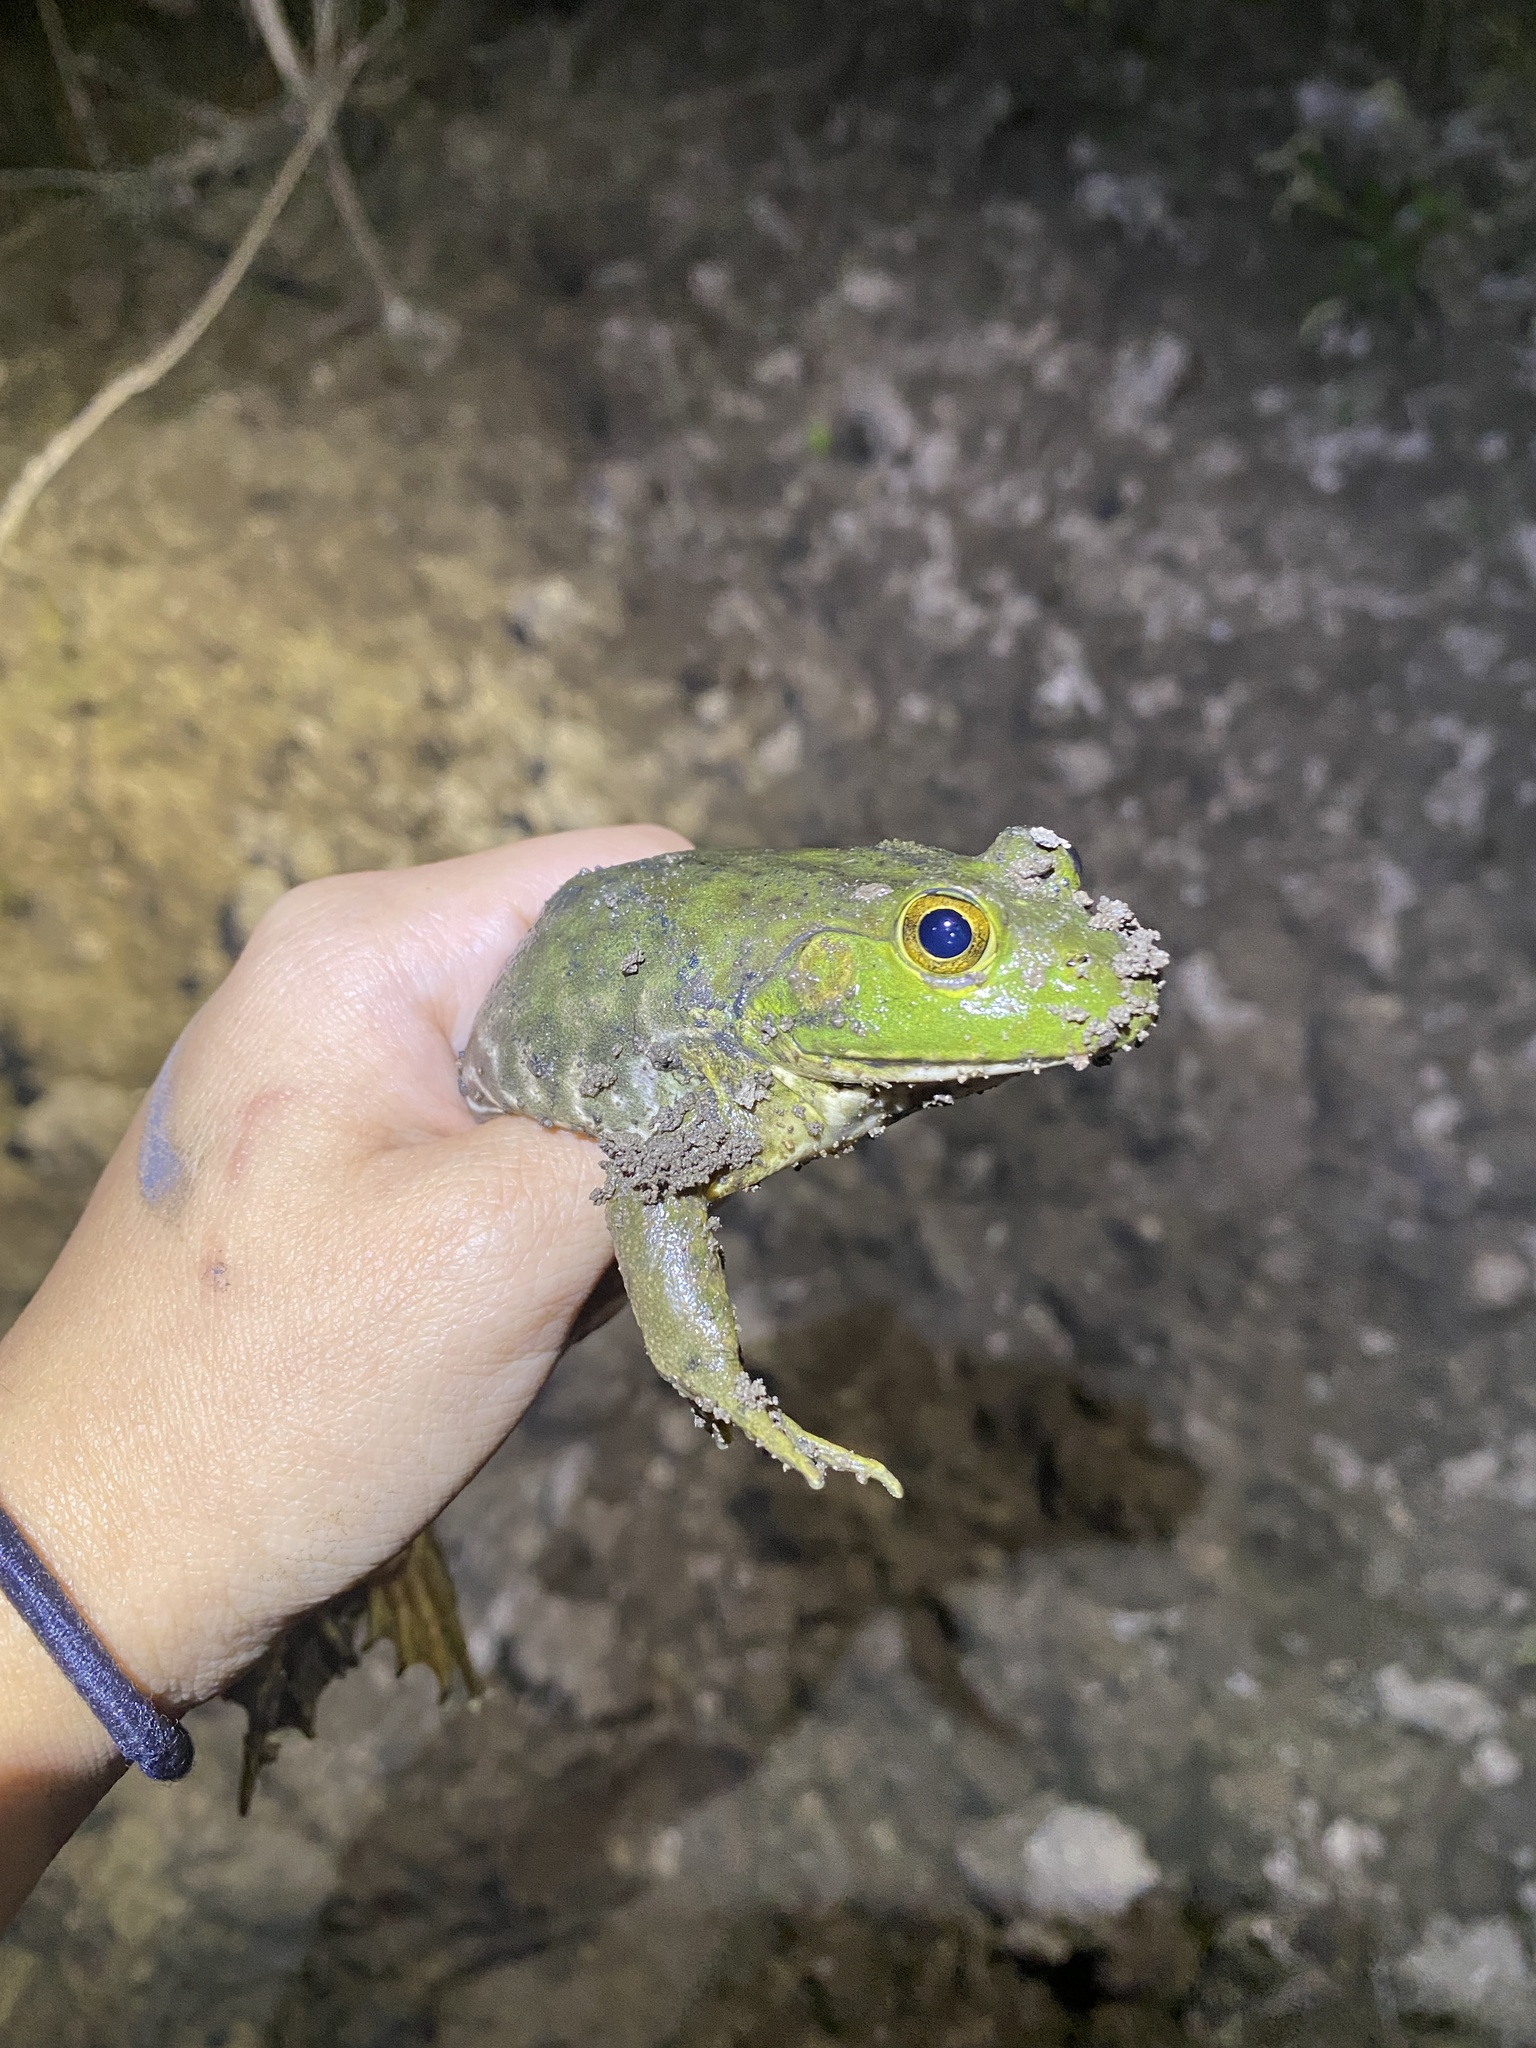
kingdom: Animalia
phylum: Chordata
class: Amphibia
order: Anura
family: Ranidae
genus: Lithobates
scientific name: Lithobates catesbeianus
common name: American bullfrog
